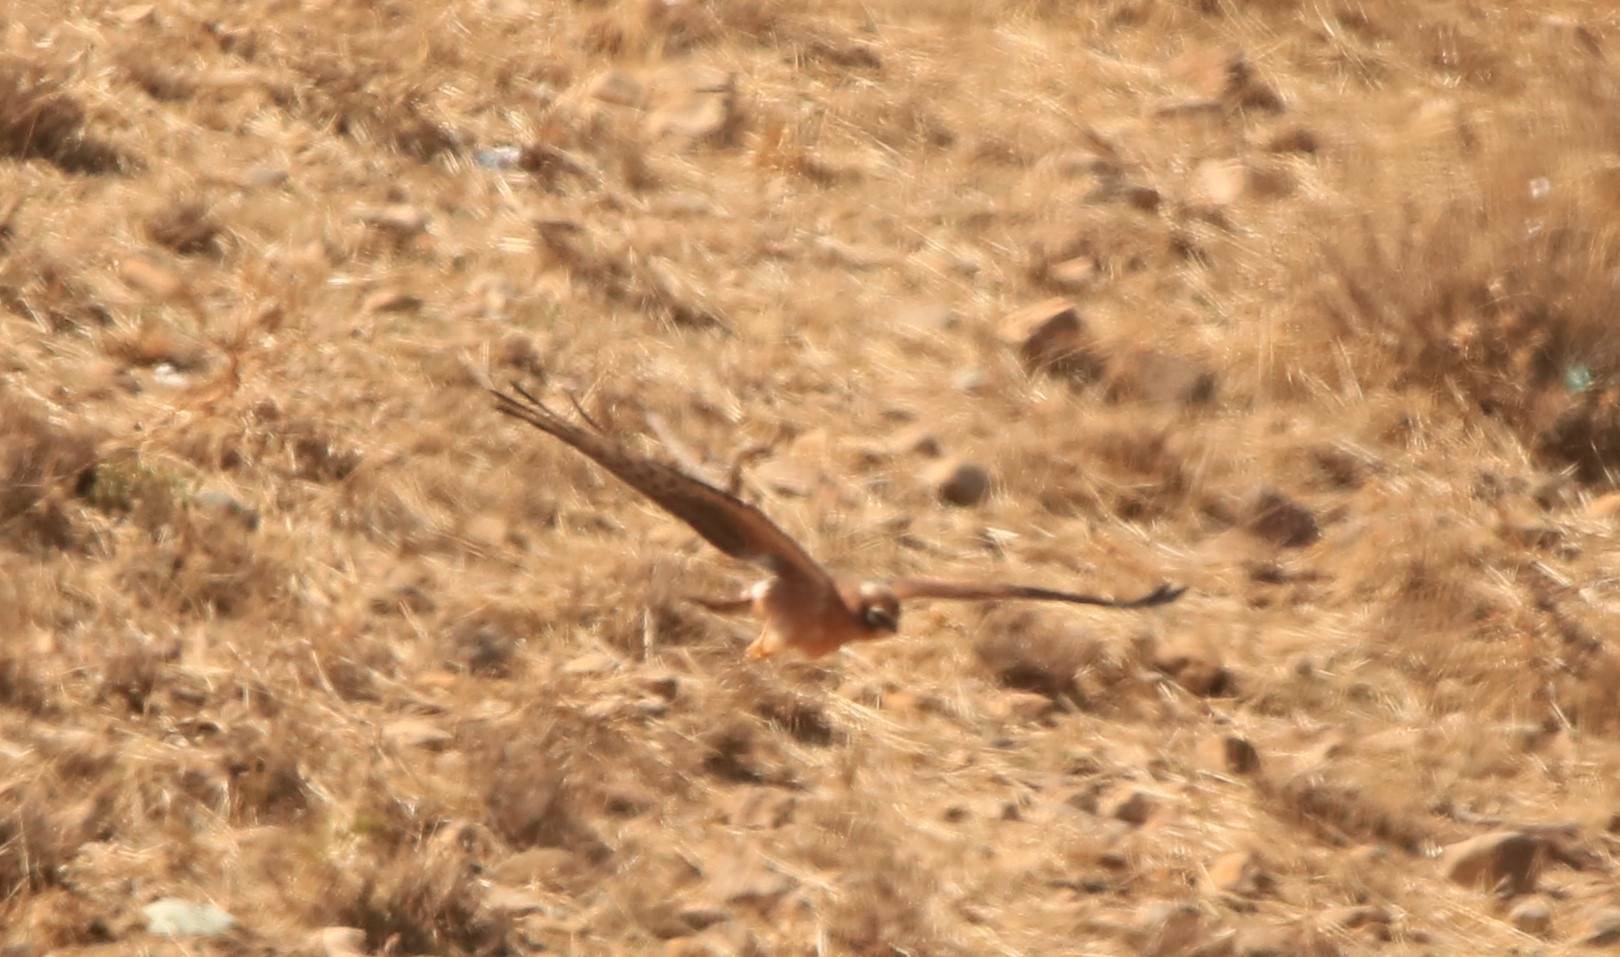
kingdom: Animalia
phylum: Chordata
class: Aves
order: Accipitriformes
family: Accipitridae
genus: Circus
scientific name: Circus pygargus
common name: Montagu's harrier
